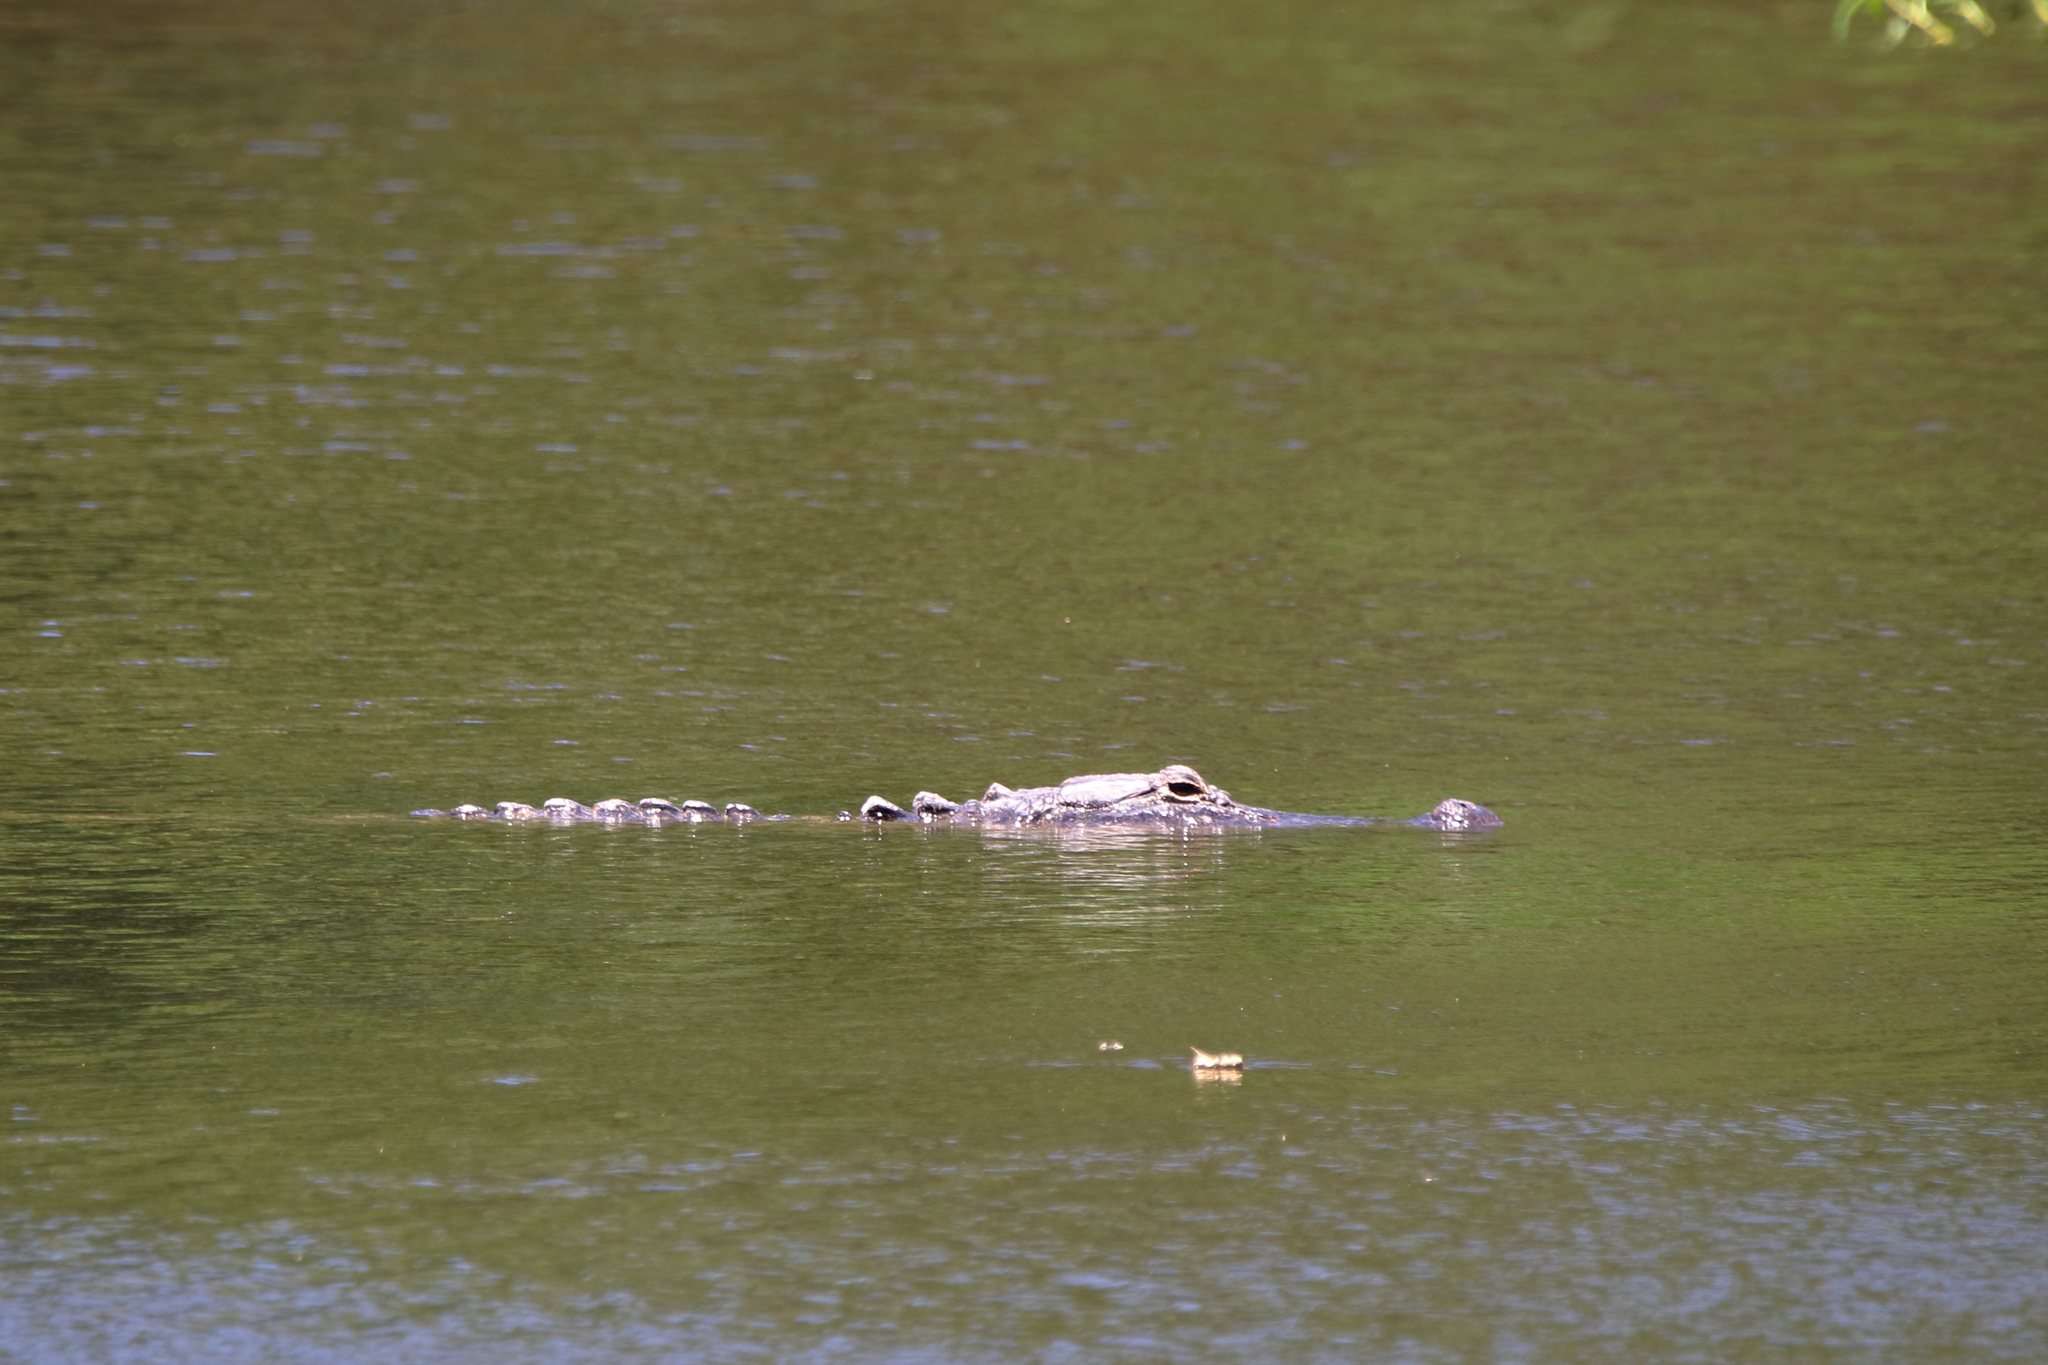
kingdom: Animalia
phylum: Chordata
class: Crocodylia
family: Alligatoridae
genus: Alligator
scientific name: Alligator mississippiensis
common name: American alligator
